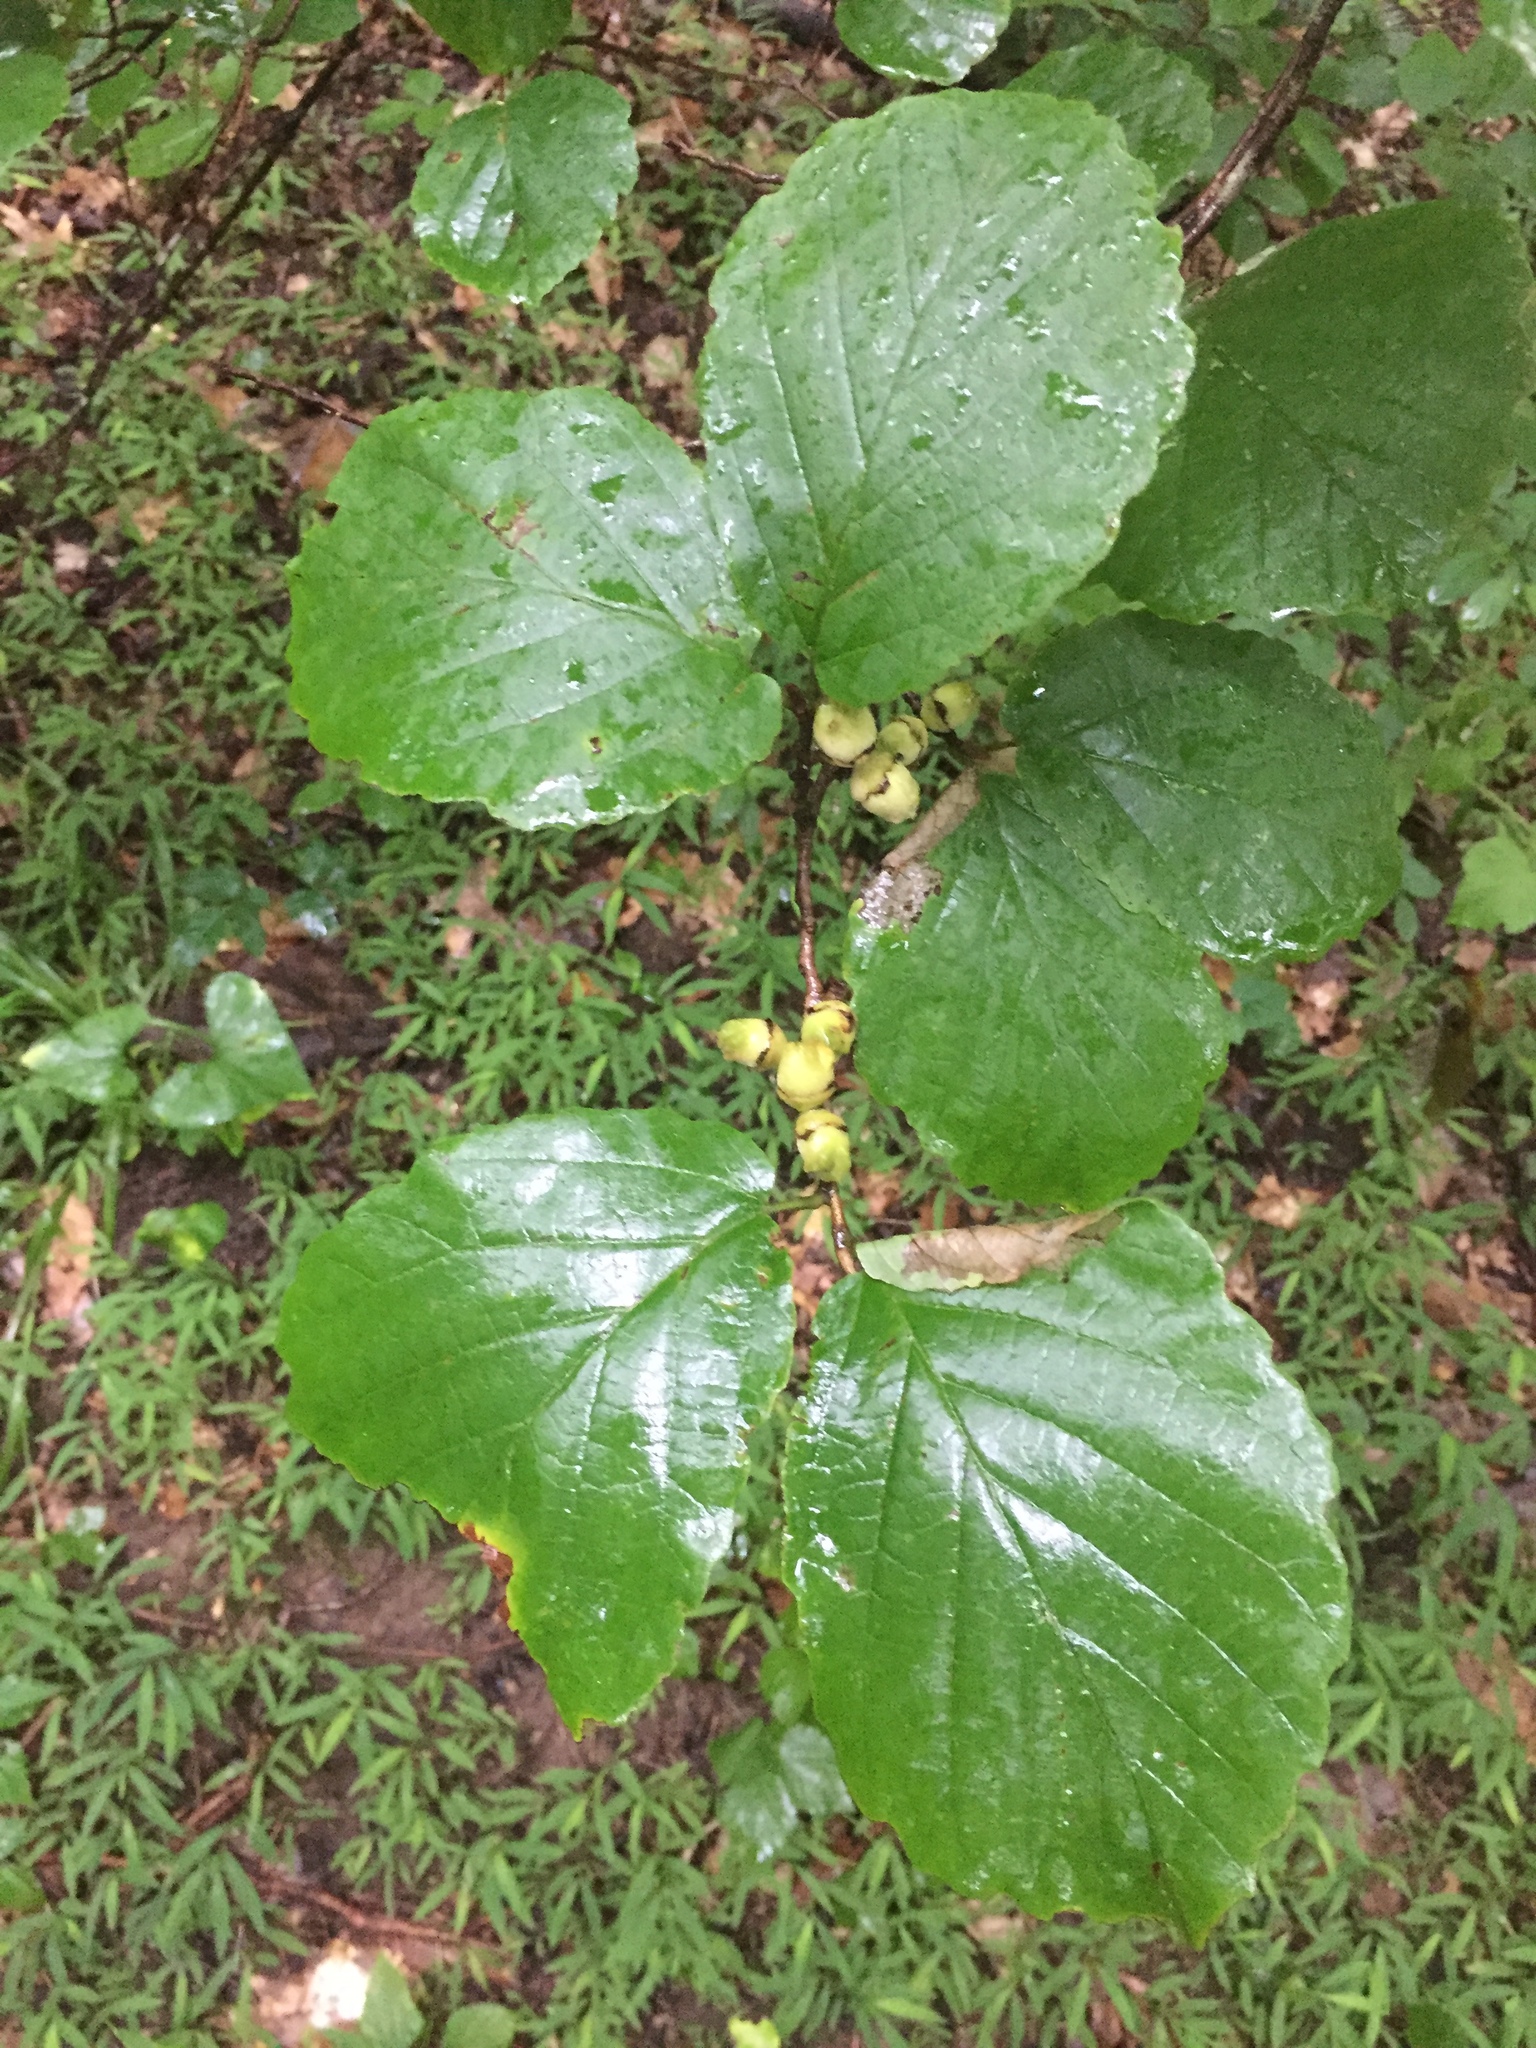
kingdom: Plantae
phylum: Tracheophyta
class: Magnoliopsida
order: Saxifragales
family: Hamamelidaceae
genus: Hamamelis
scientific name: Hamamelis virginiana
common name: Witch-hazel
